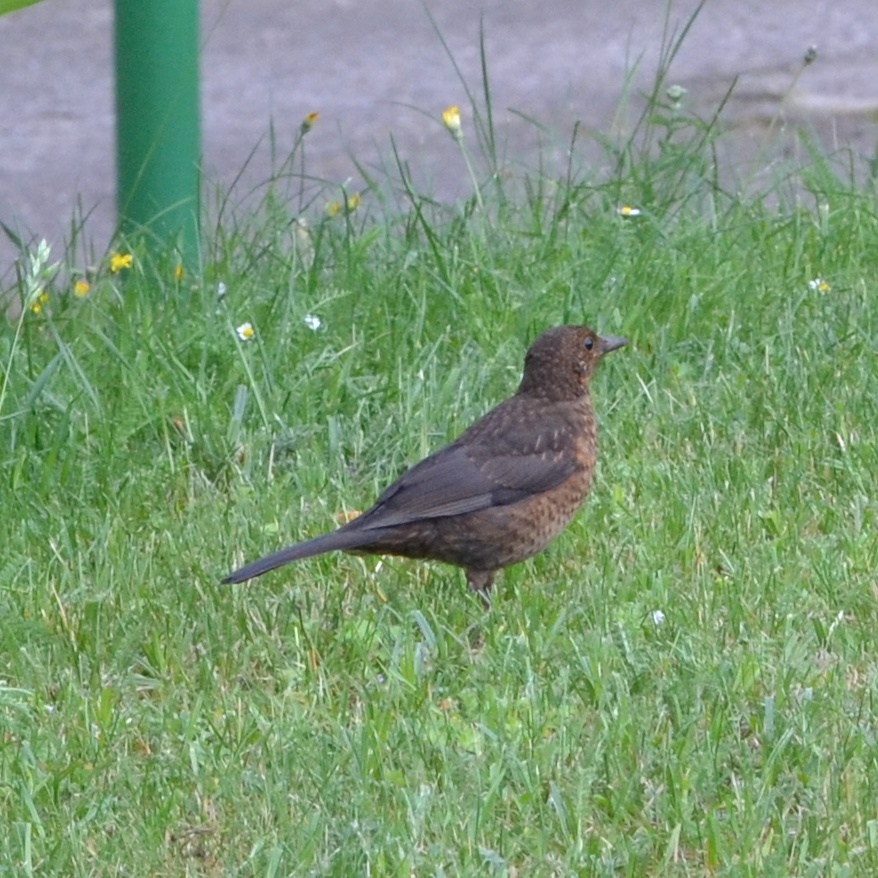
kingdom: Animalia
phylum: Chordata
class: Aves
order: Passeriformes
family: Turdidae
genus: Turdus
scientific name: Turdus merula
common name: Common blackbird
